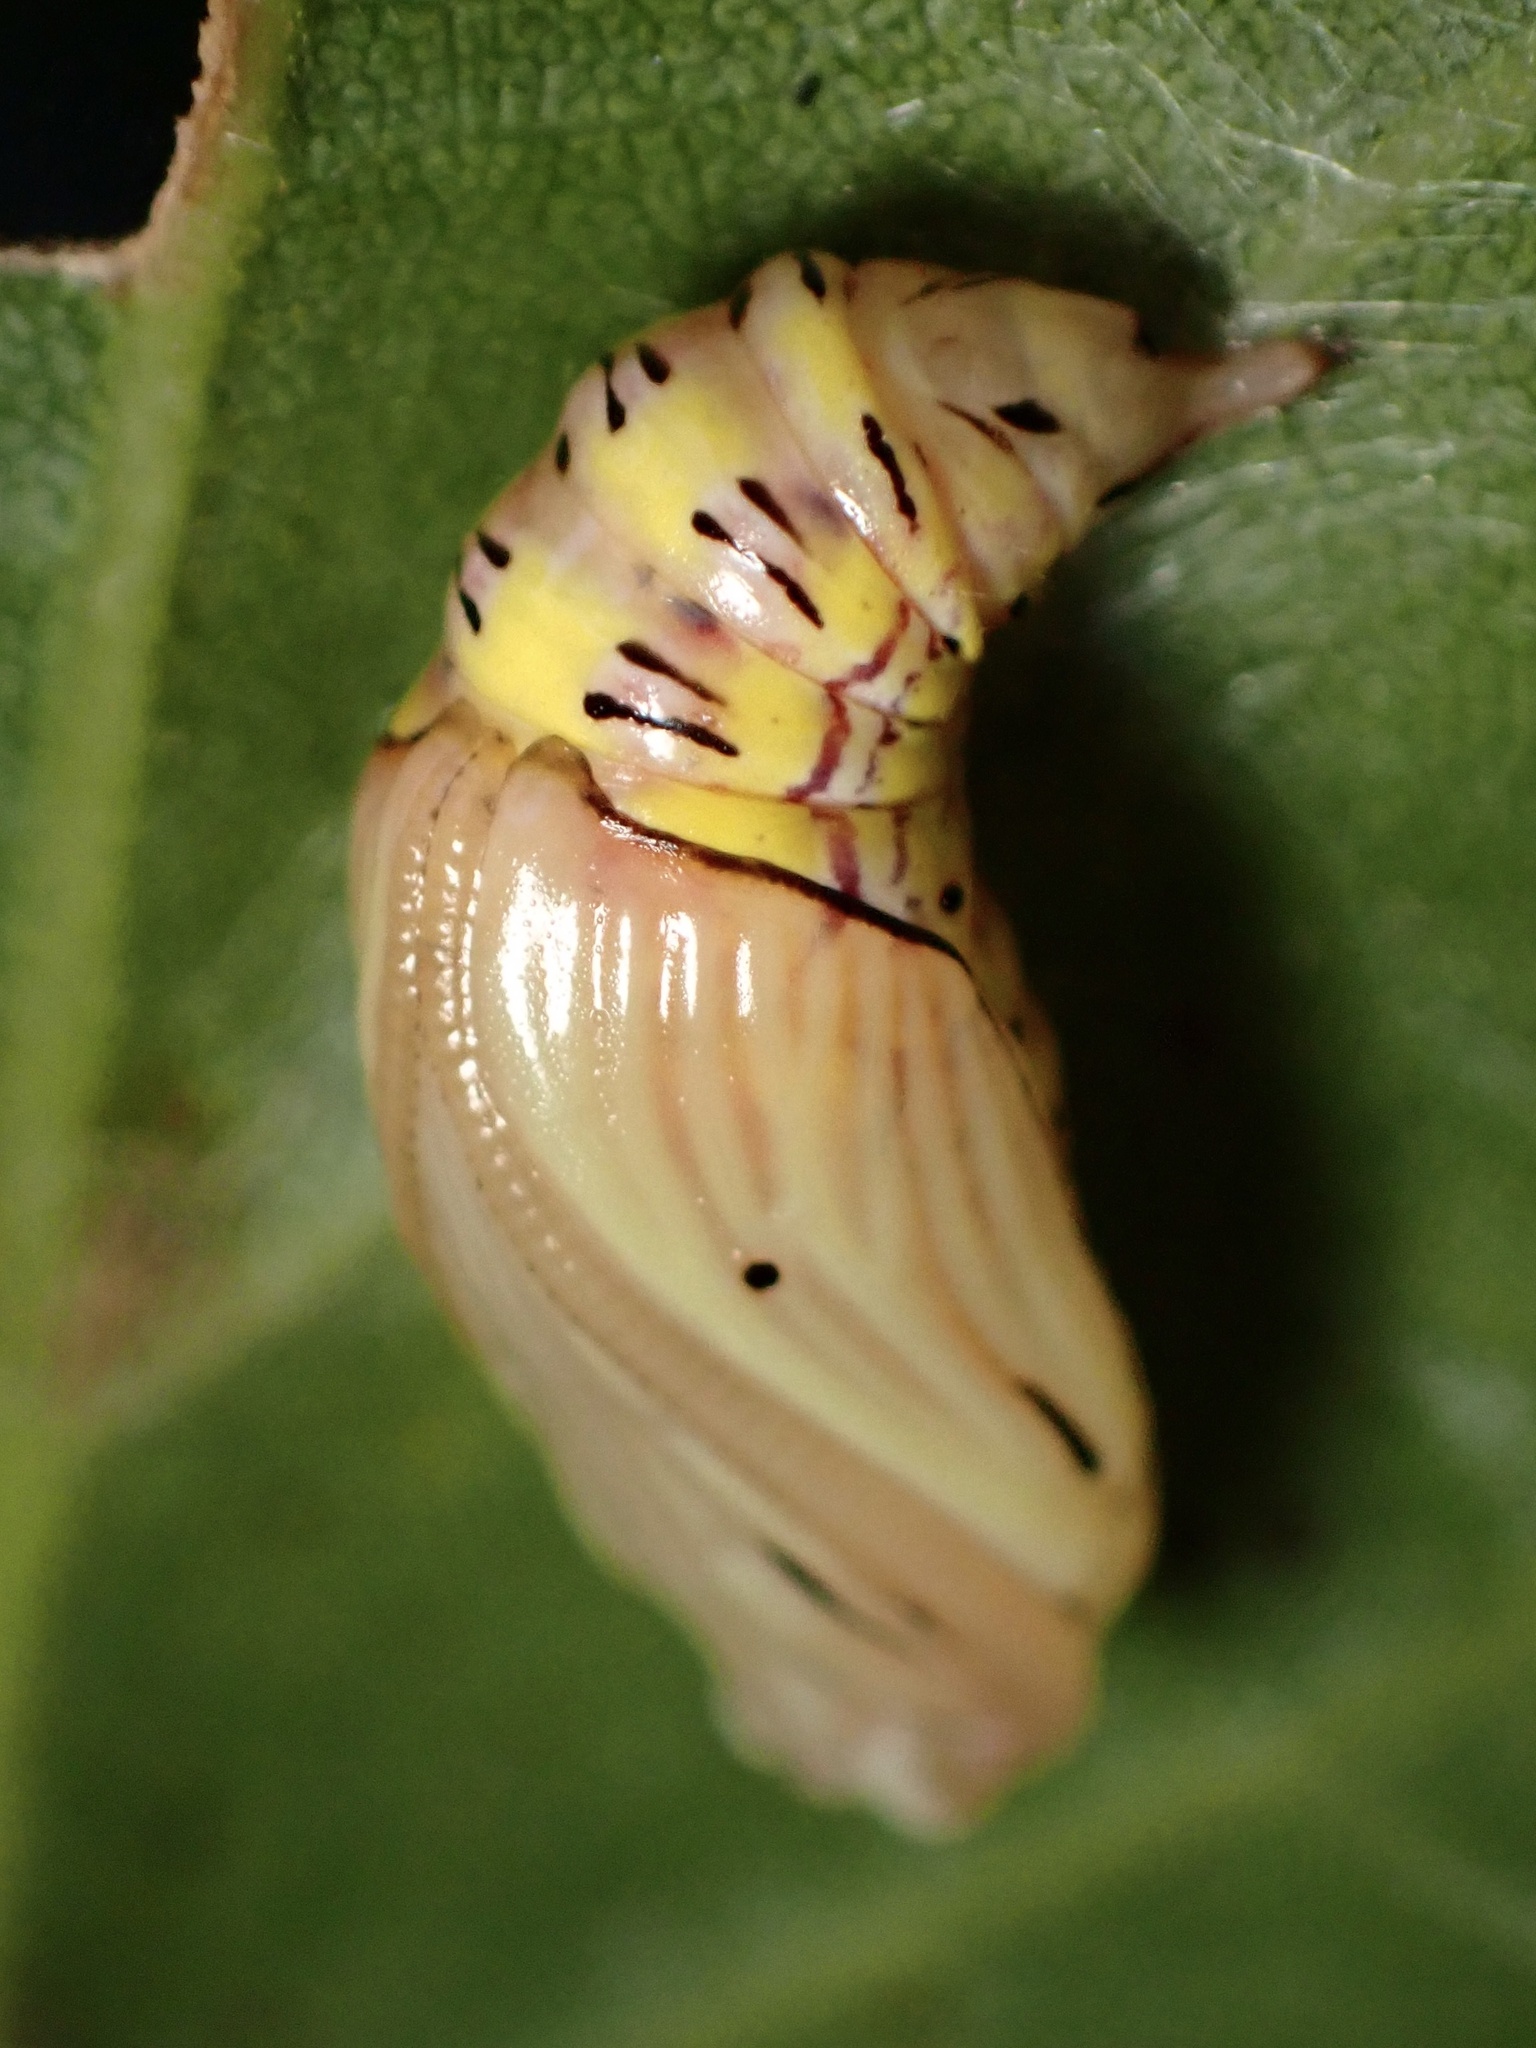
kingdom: Animalia
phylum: Arthropoda
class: Insecta
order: Lepidoptera
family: Notodontidae
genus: Phryganidia
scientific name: Phryganidia californica
